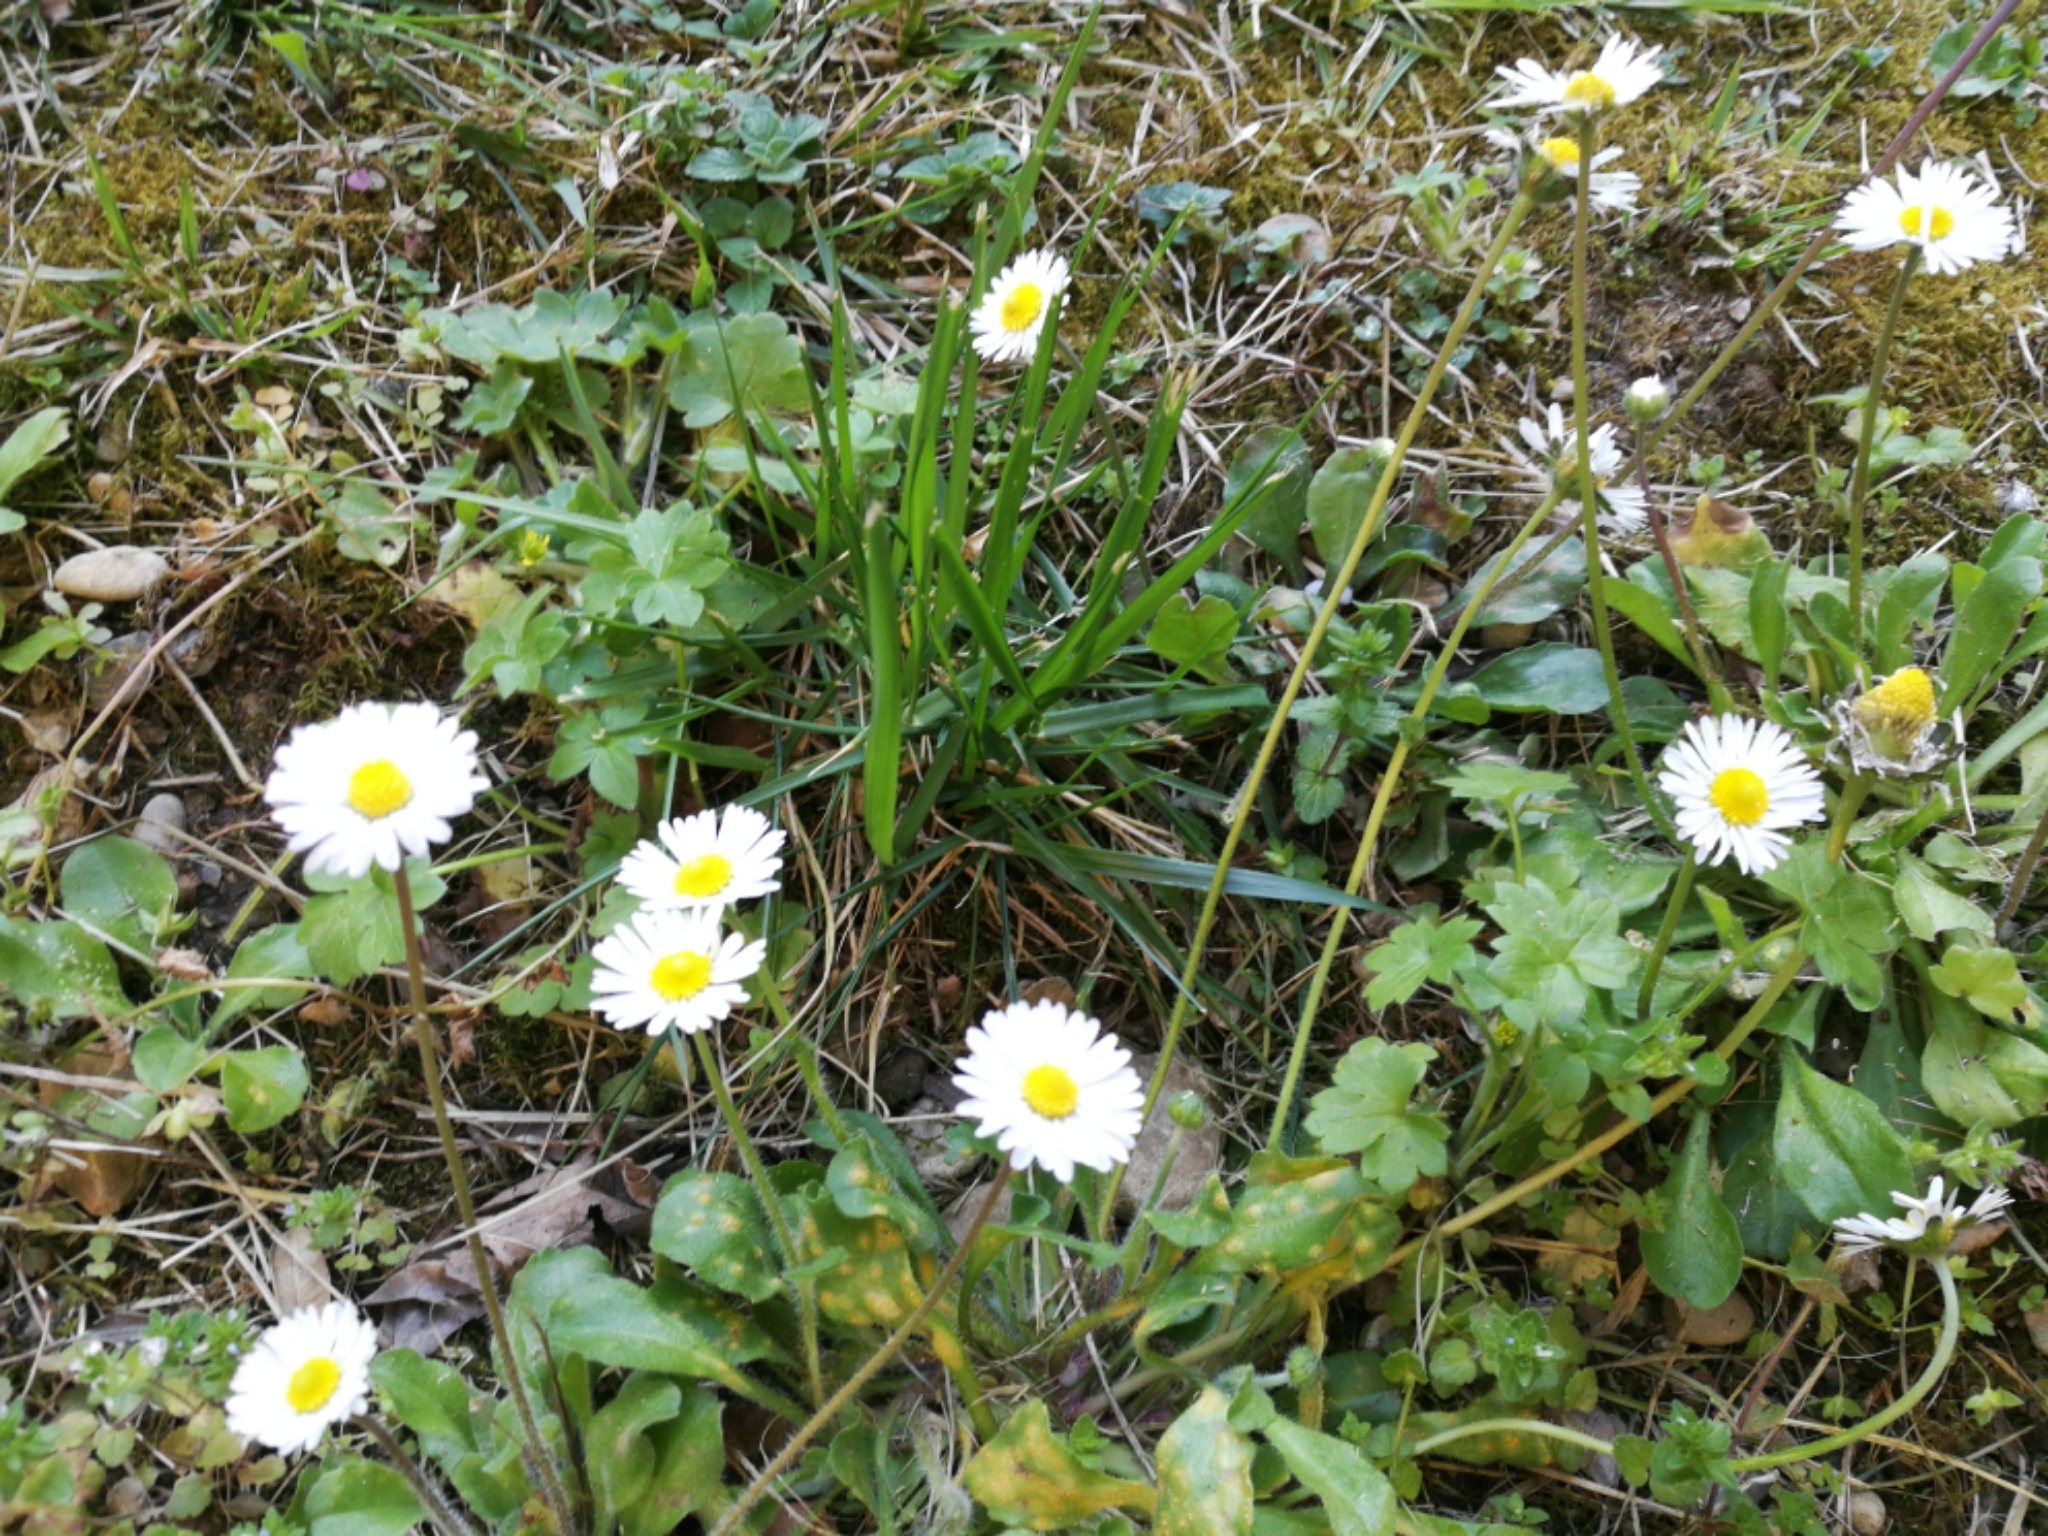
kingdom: Plantae
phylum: Tracheophyta
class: Magnoliopsida
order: Asterales
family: Asteraceae
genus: Bellis
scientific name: Bellis perennis
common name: Lawndaisy
